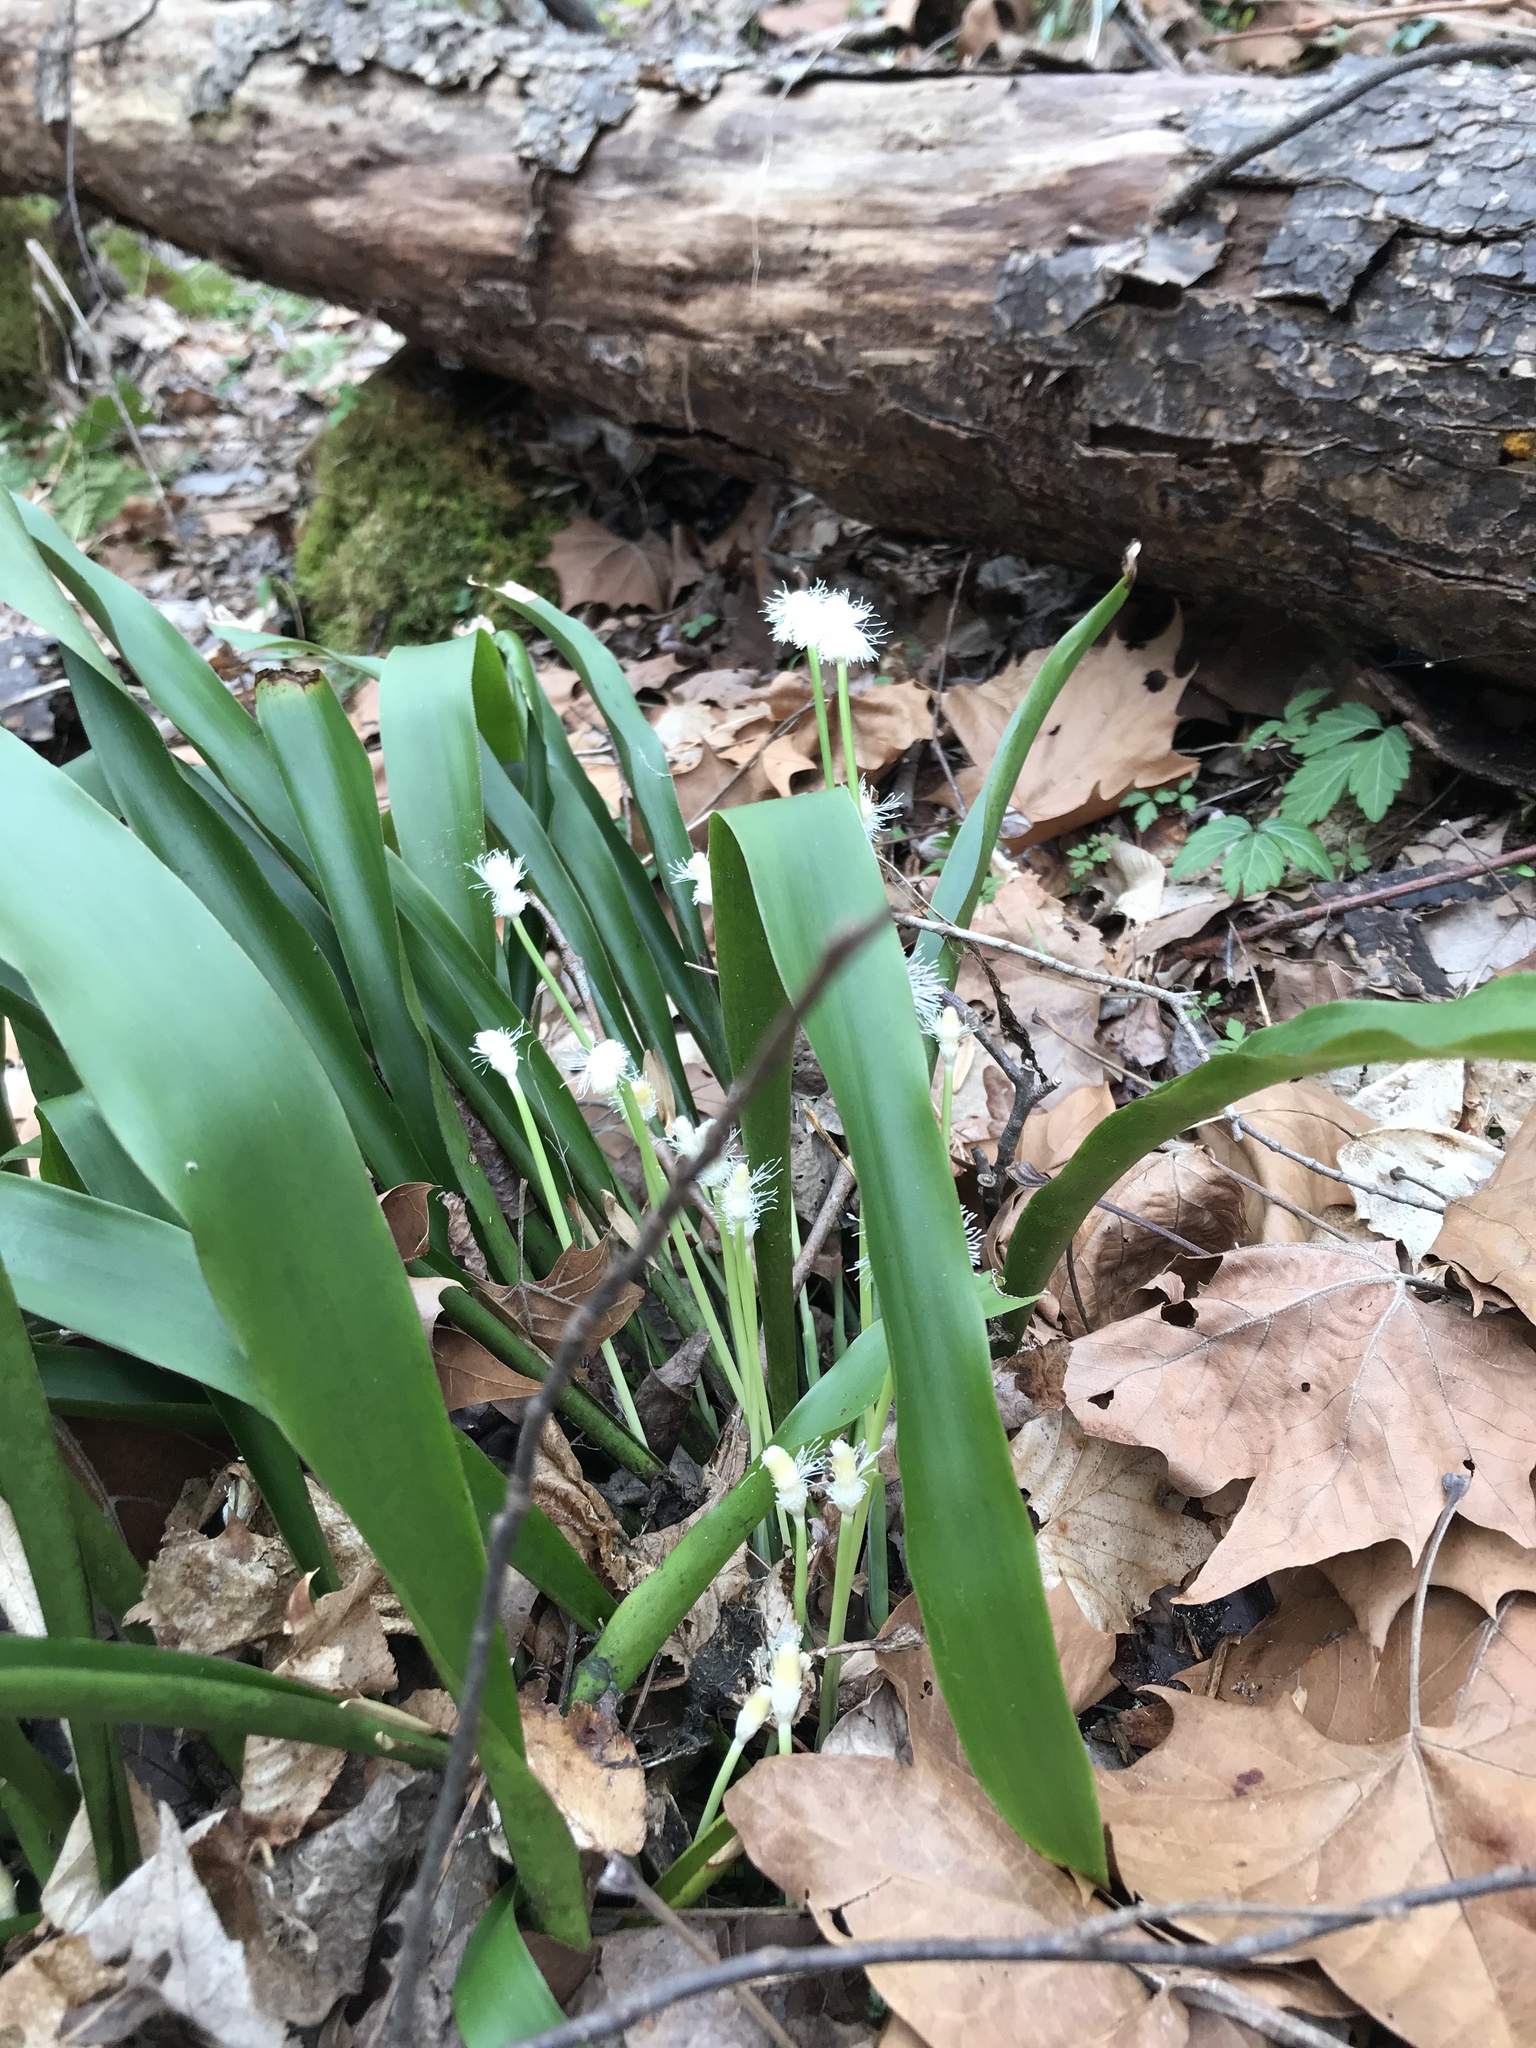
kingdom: Plantae
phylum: Tracheophyta
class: Liliopsida
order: Poales
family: Cyperaceae
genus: Carex
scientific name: Carex fraseriana
